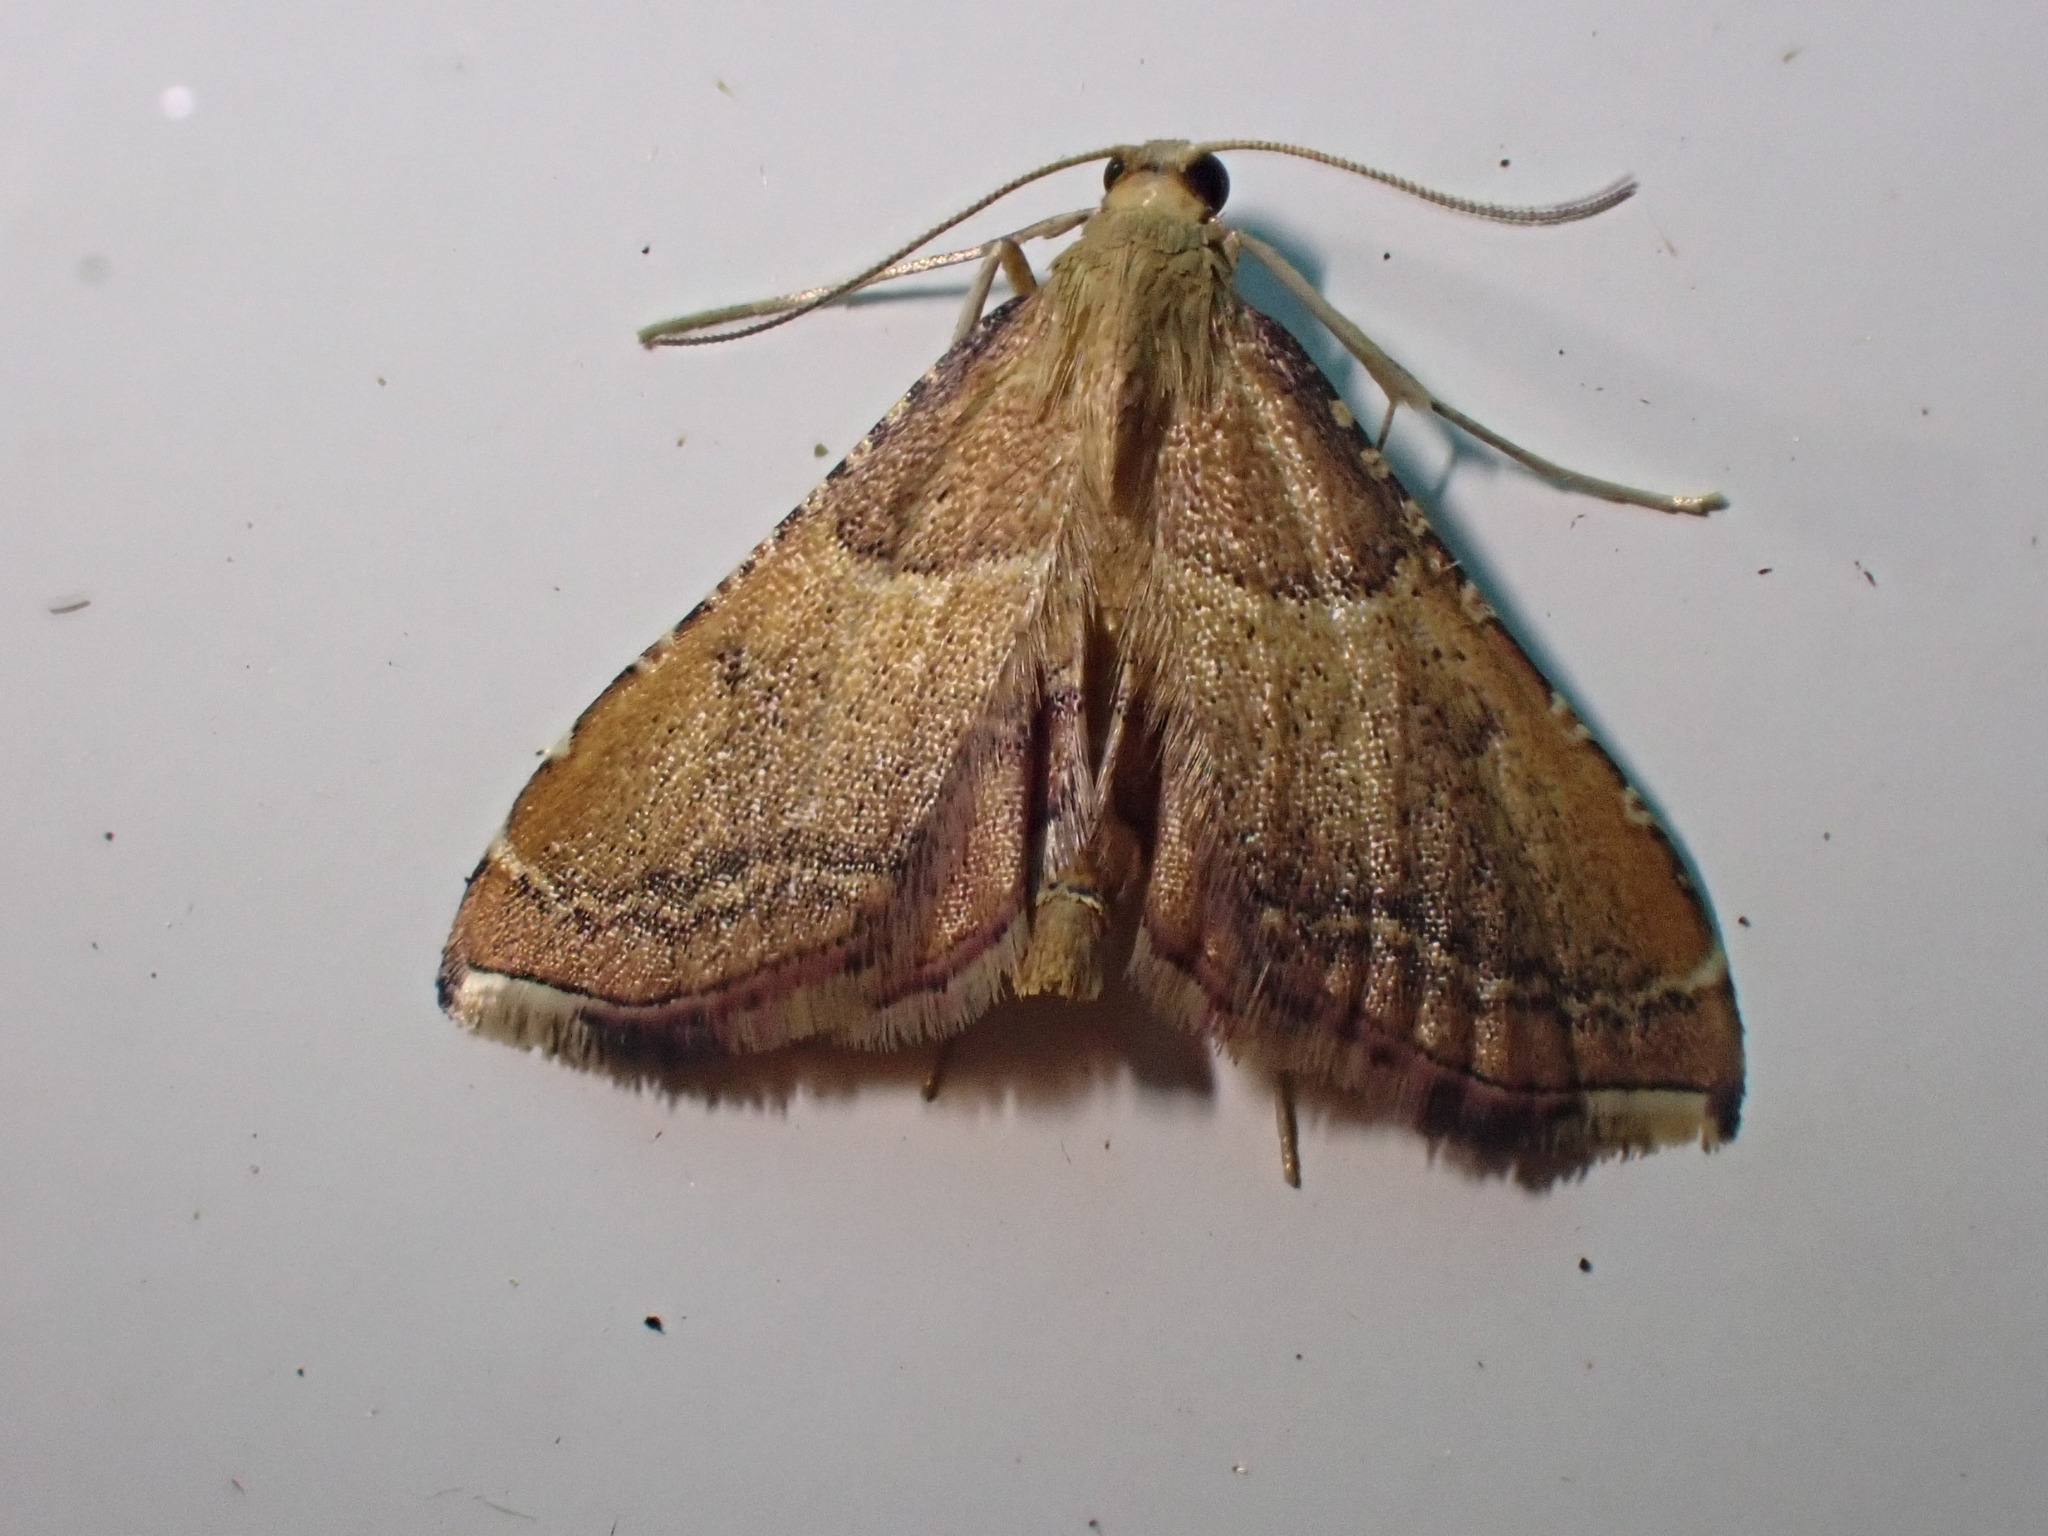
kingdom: Animalia
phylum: Arthropoda
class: Insecta
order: Lepidoptera
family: Pyralidae
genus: Endotricha
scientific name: Endotricha flammealis
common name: Rosy tabby
